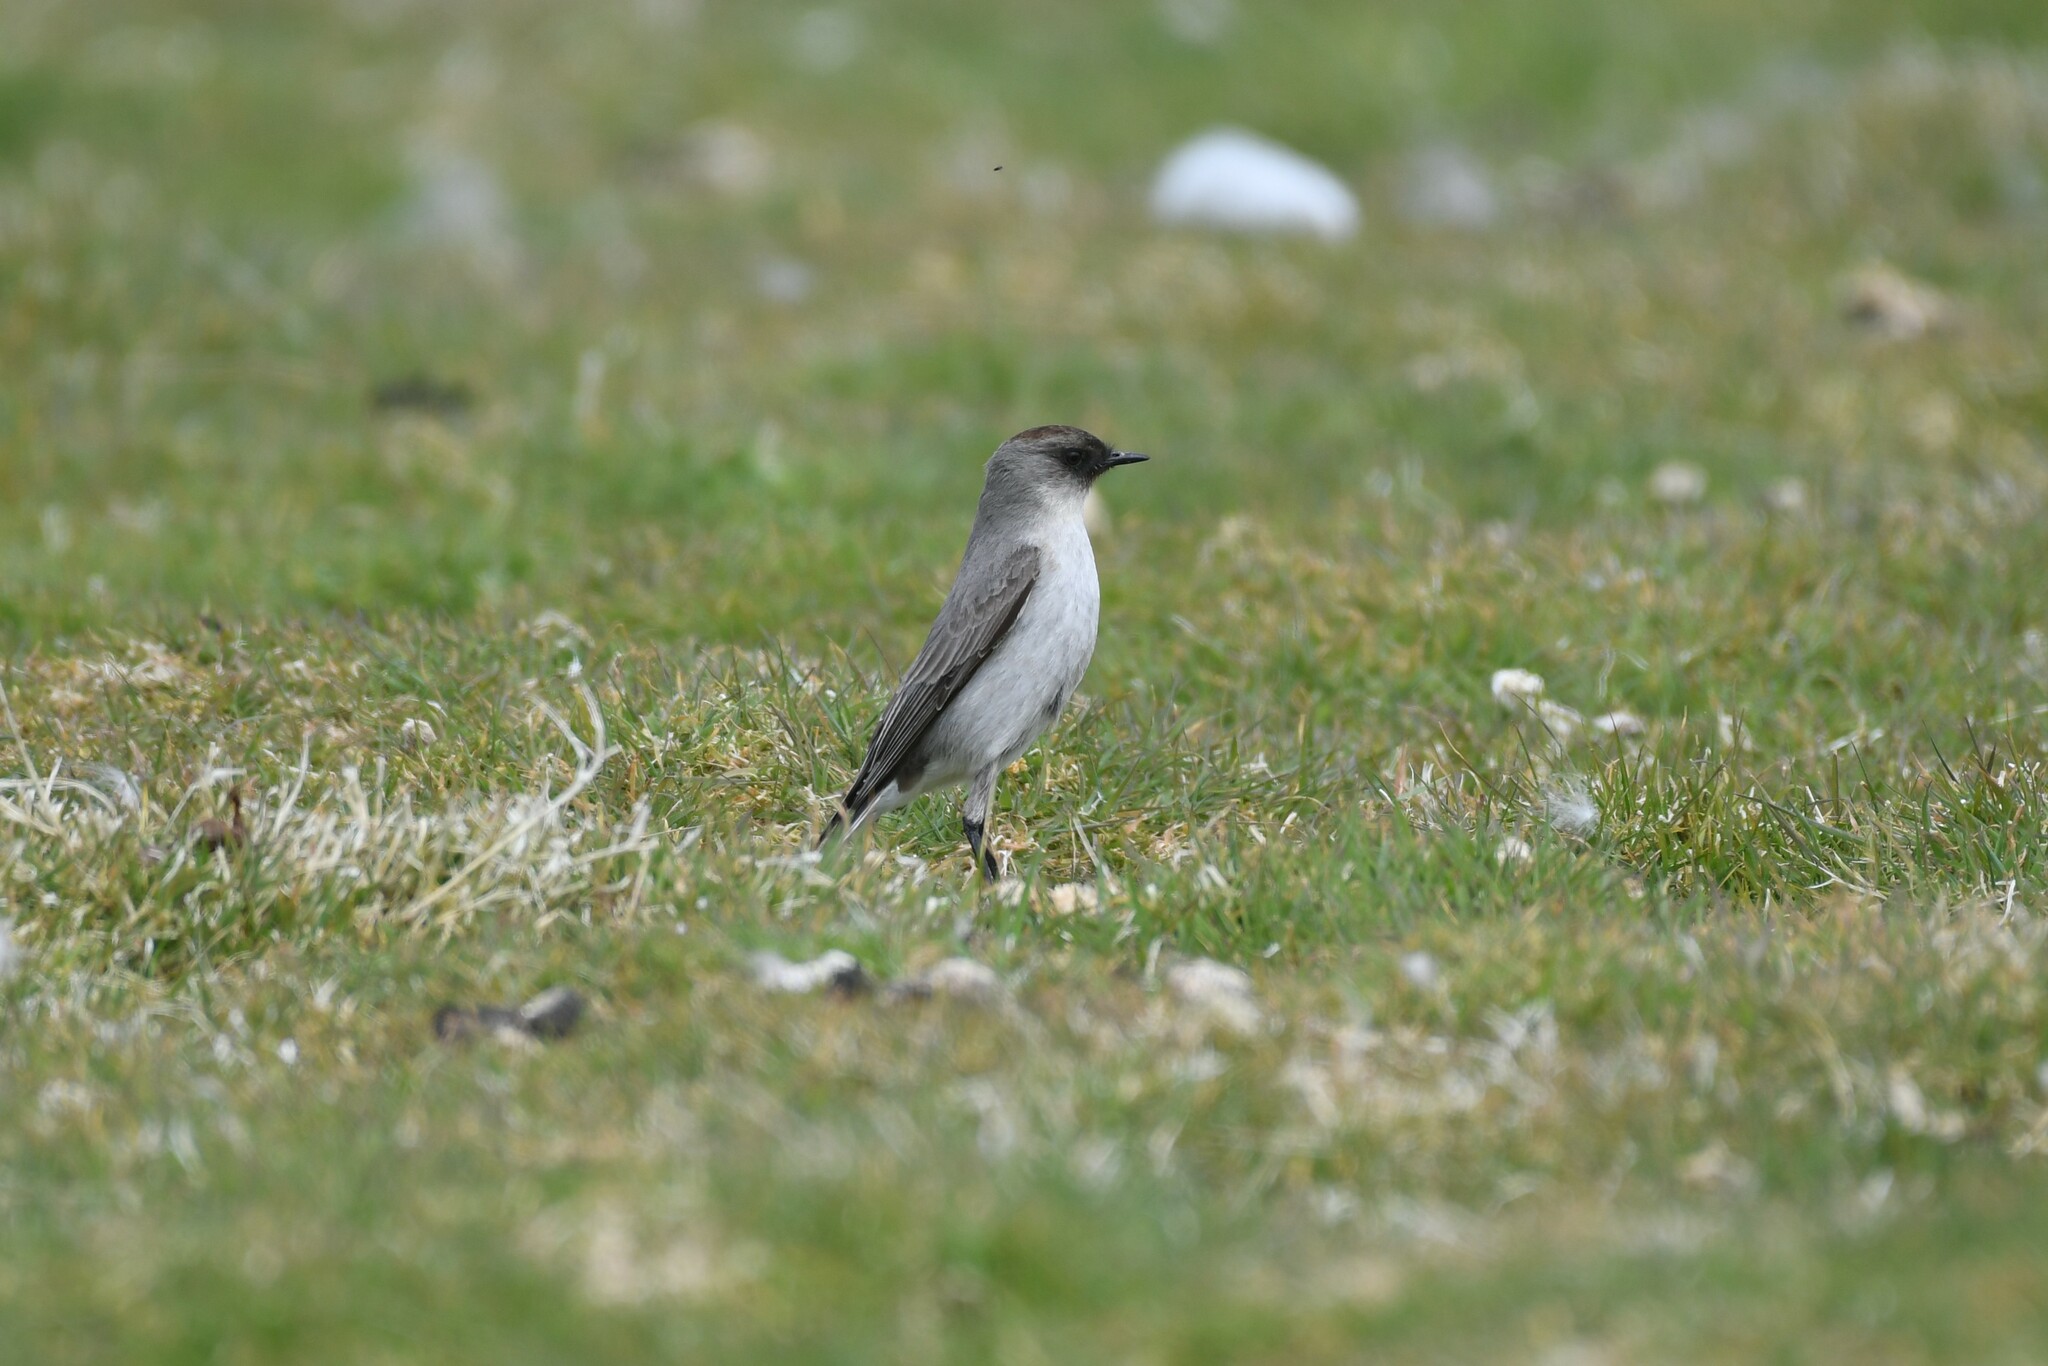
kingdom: Animalia
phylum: Chordata
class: Aves
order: Passeriformes
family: Tyrannidae
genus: Muscisaxicola
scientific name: Muscisaxicola maclovianus
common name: Dark-faced ground tyrant
